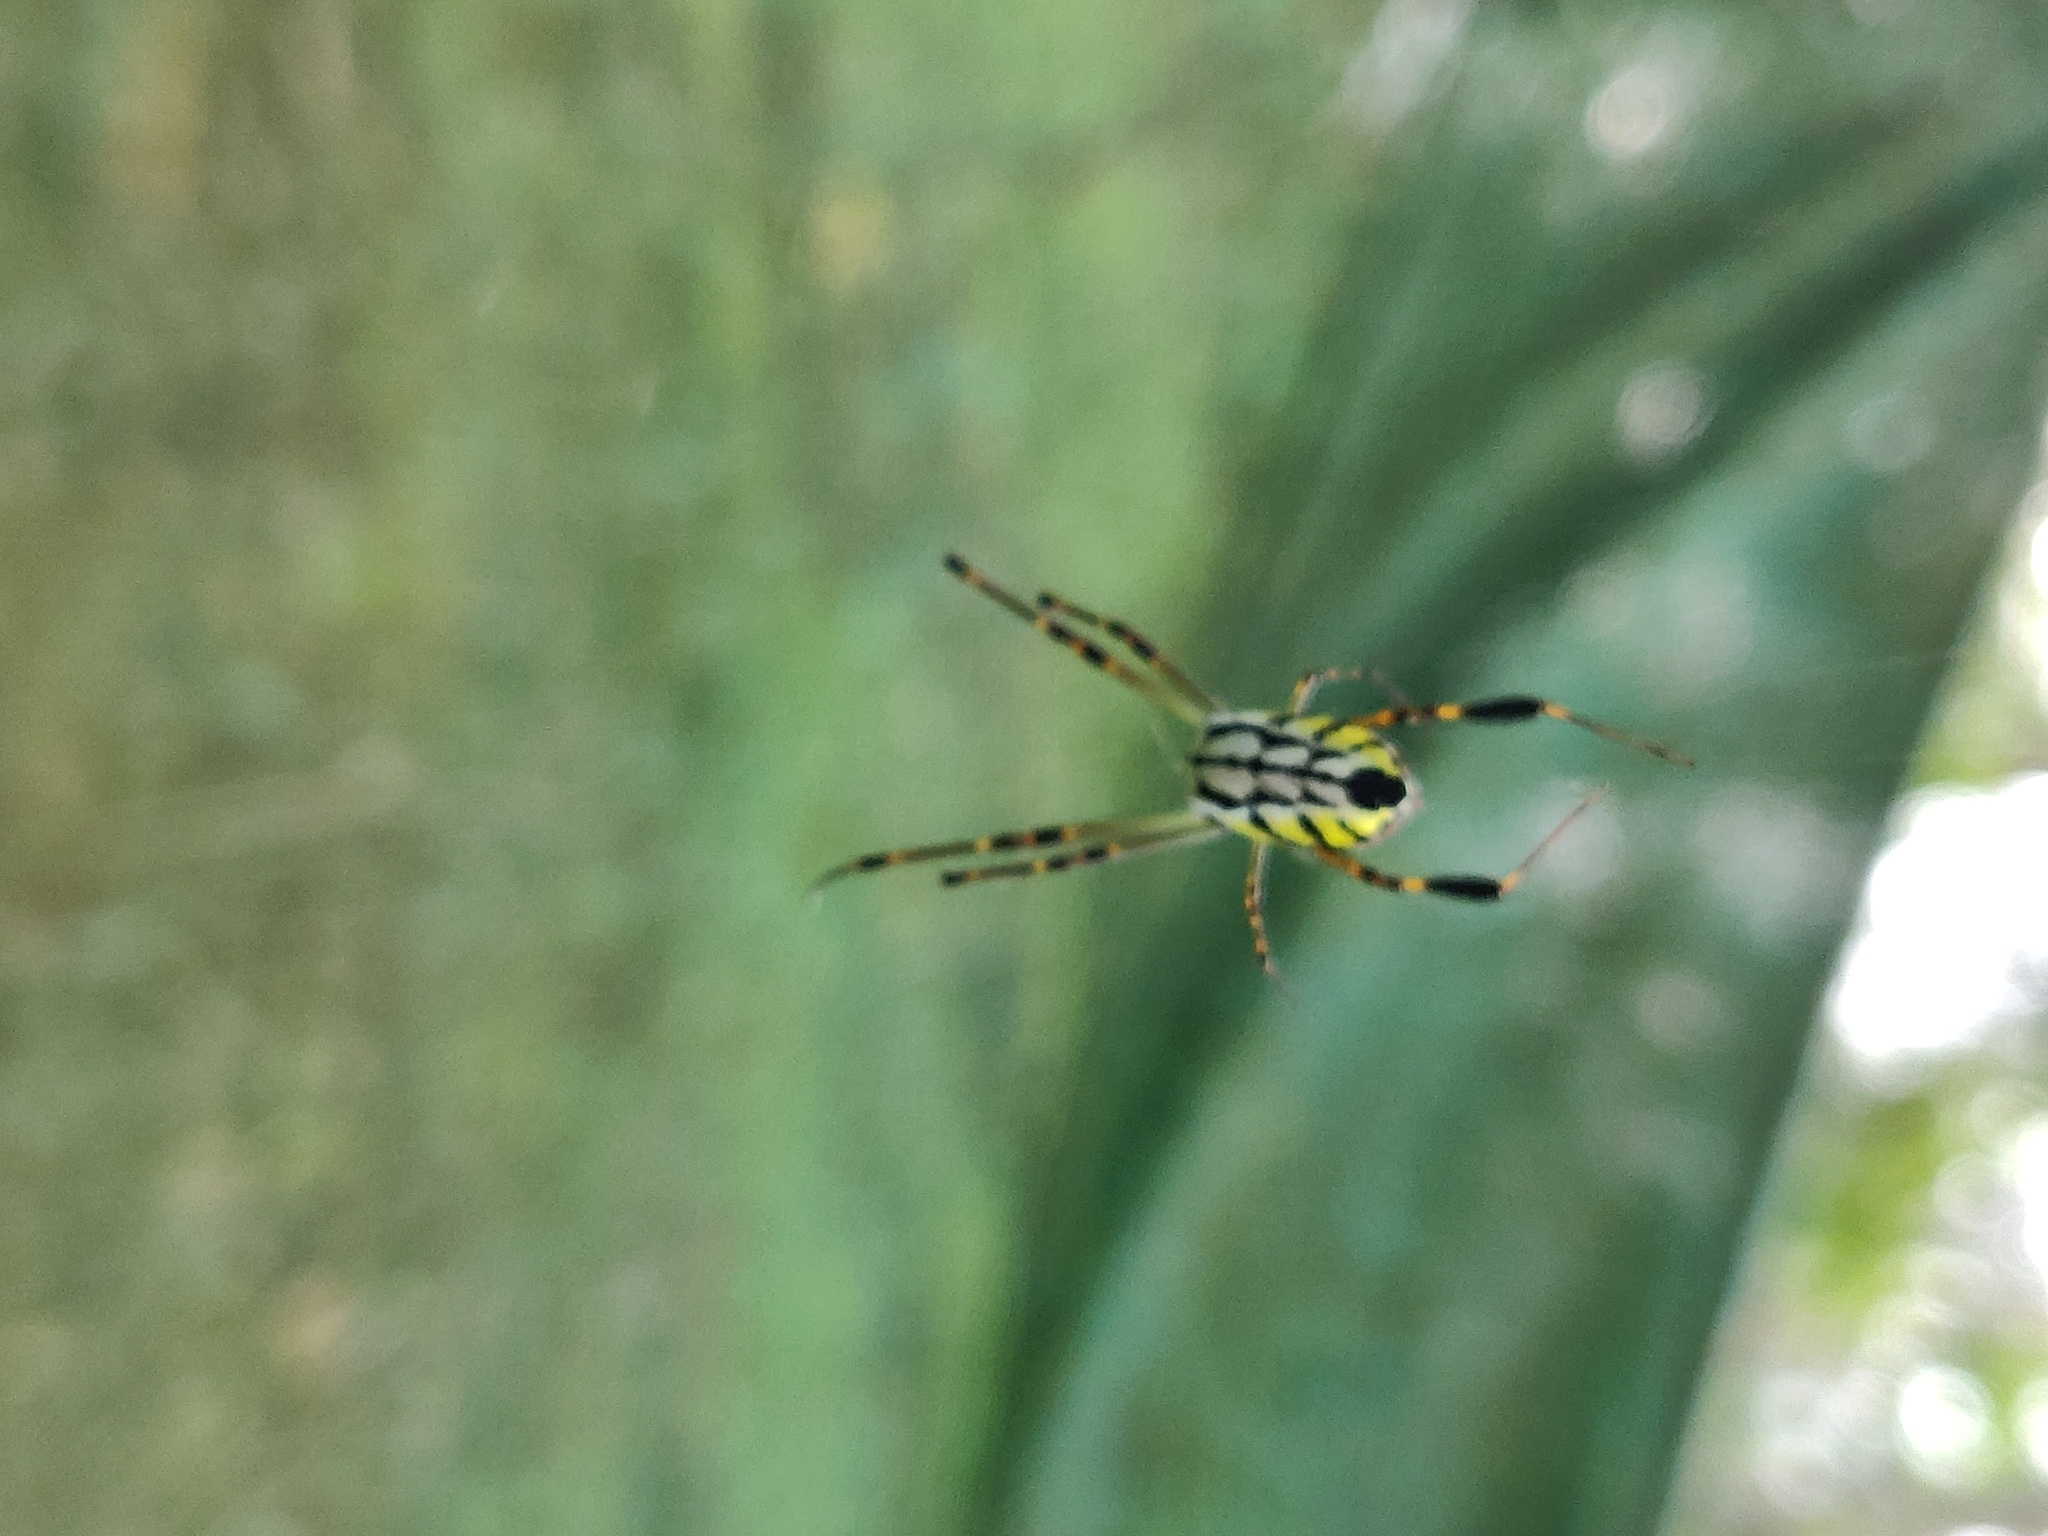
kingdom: Animalia
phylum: Arthropoda
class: Arachnida
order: Araneae
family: Tetragnathidae
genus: Leucauge
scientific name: Leucauge tessellata
